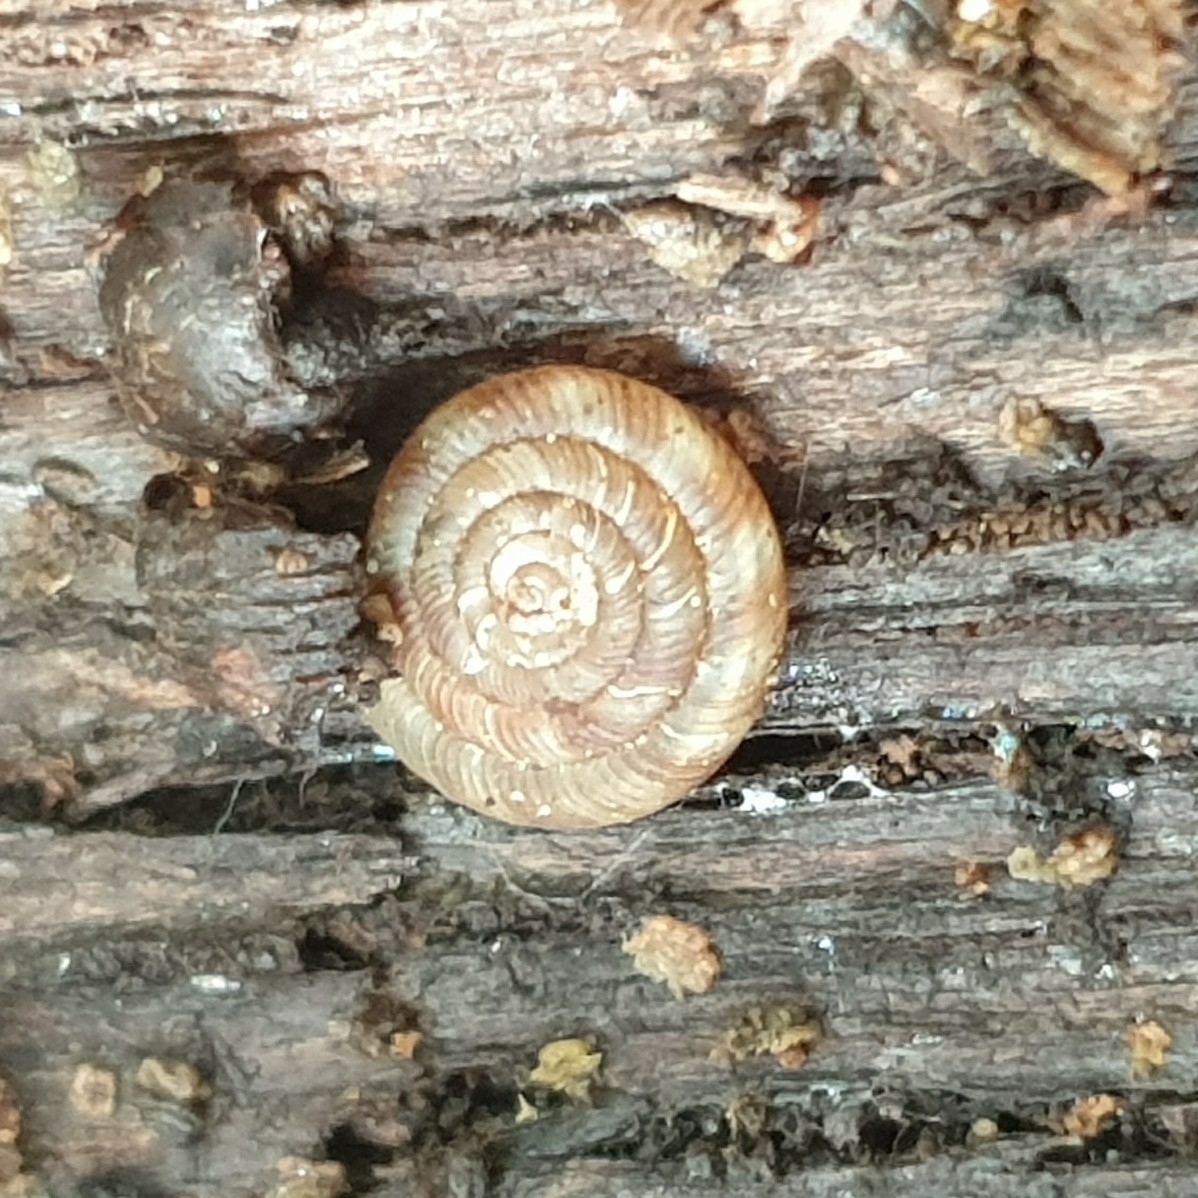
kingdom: Animalia
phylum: Mollusca
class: Gastropoda
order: Stylommatophora
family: Discidae
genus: Discus
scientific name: Discus rotundatus
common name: Rounded snail
